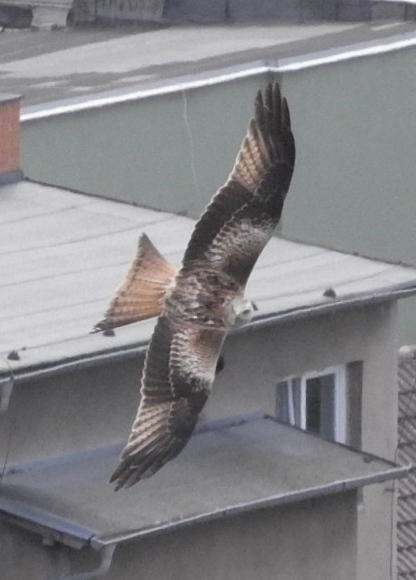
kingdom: Animalia
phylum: Chordata
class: Aves
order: Accipitriformes
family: Accipitridae
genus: Milvus
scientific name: Milvus milvus
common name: Red kite
